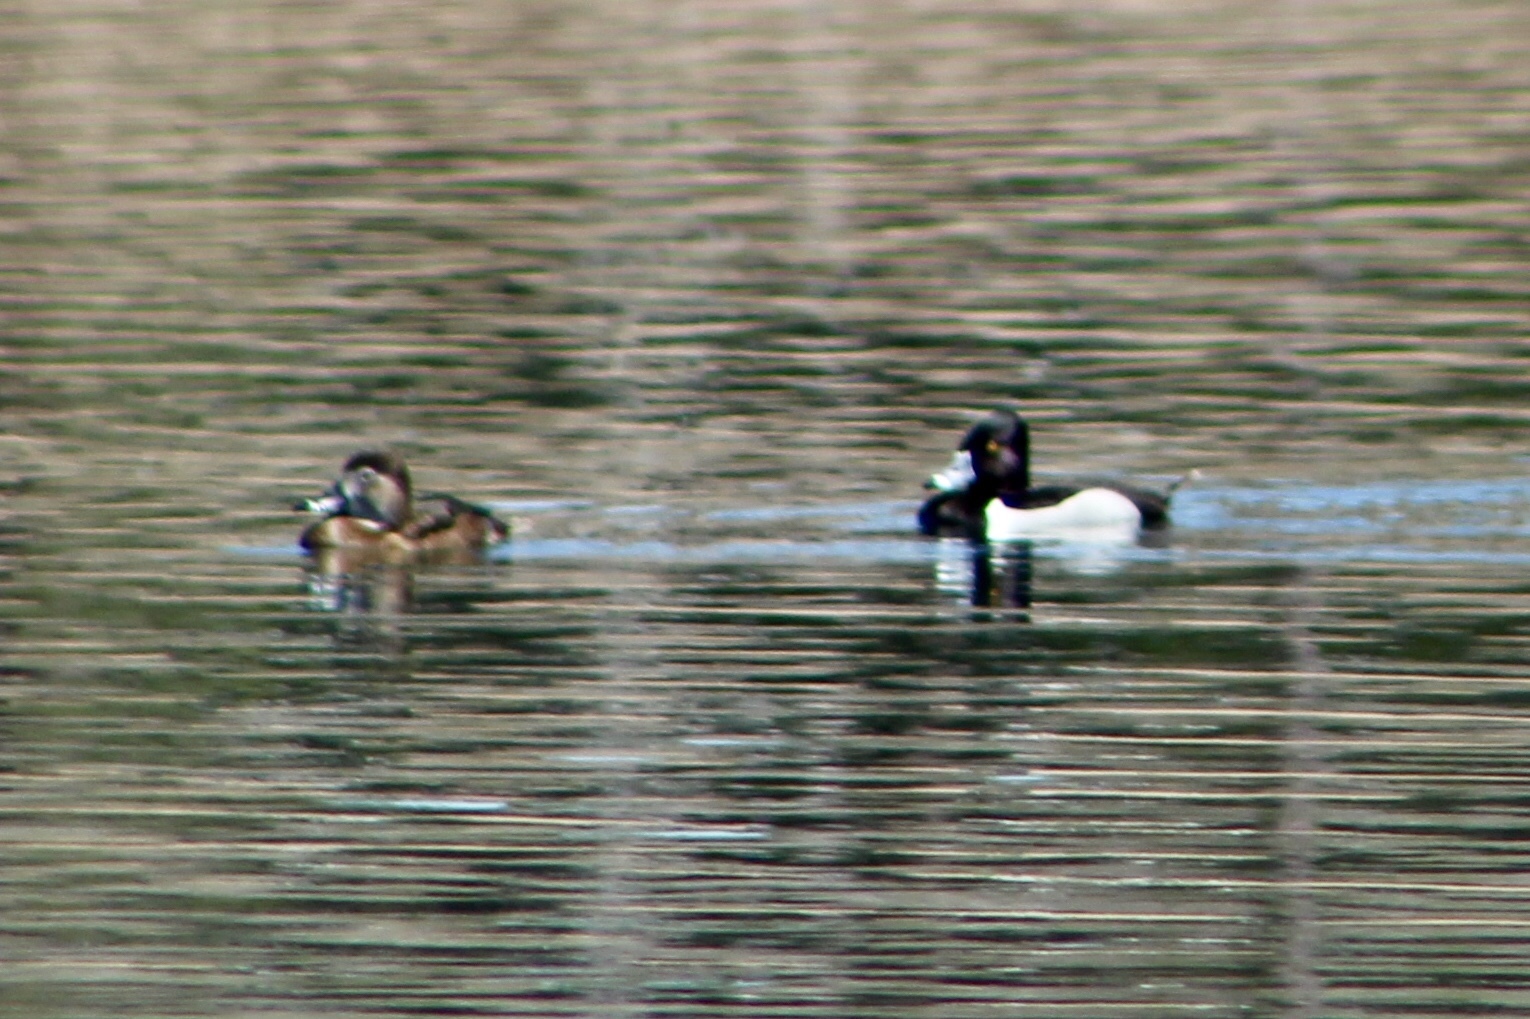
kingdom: Animalia
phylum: Chordata
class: Aves
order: Anseriformes
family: Anatidae
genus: Aythya
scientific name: Aythya collaris
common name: Ring-necked duck
